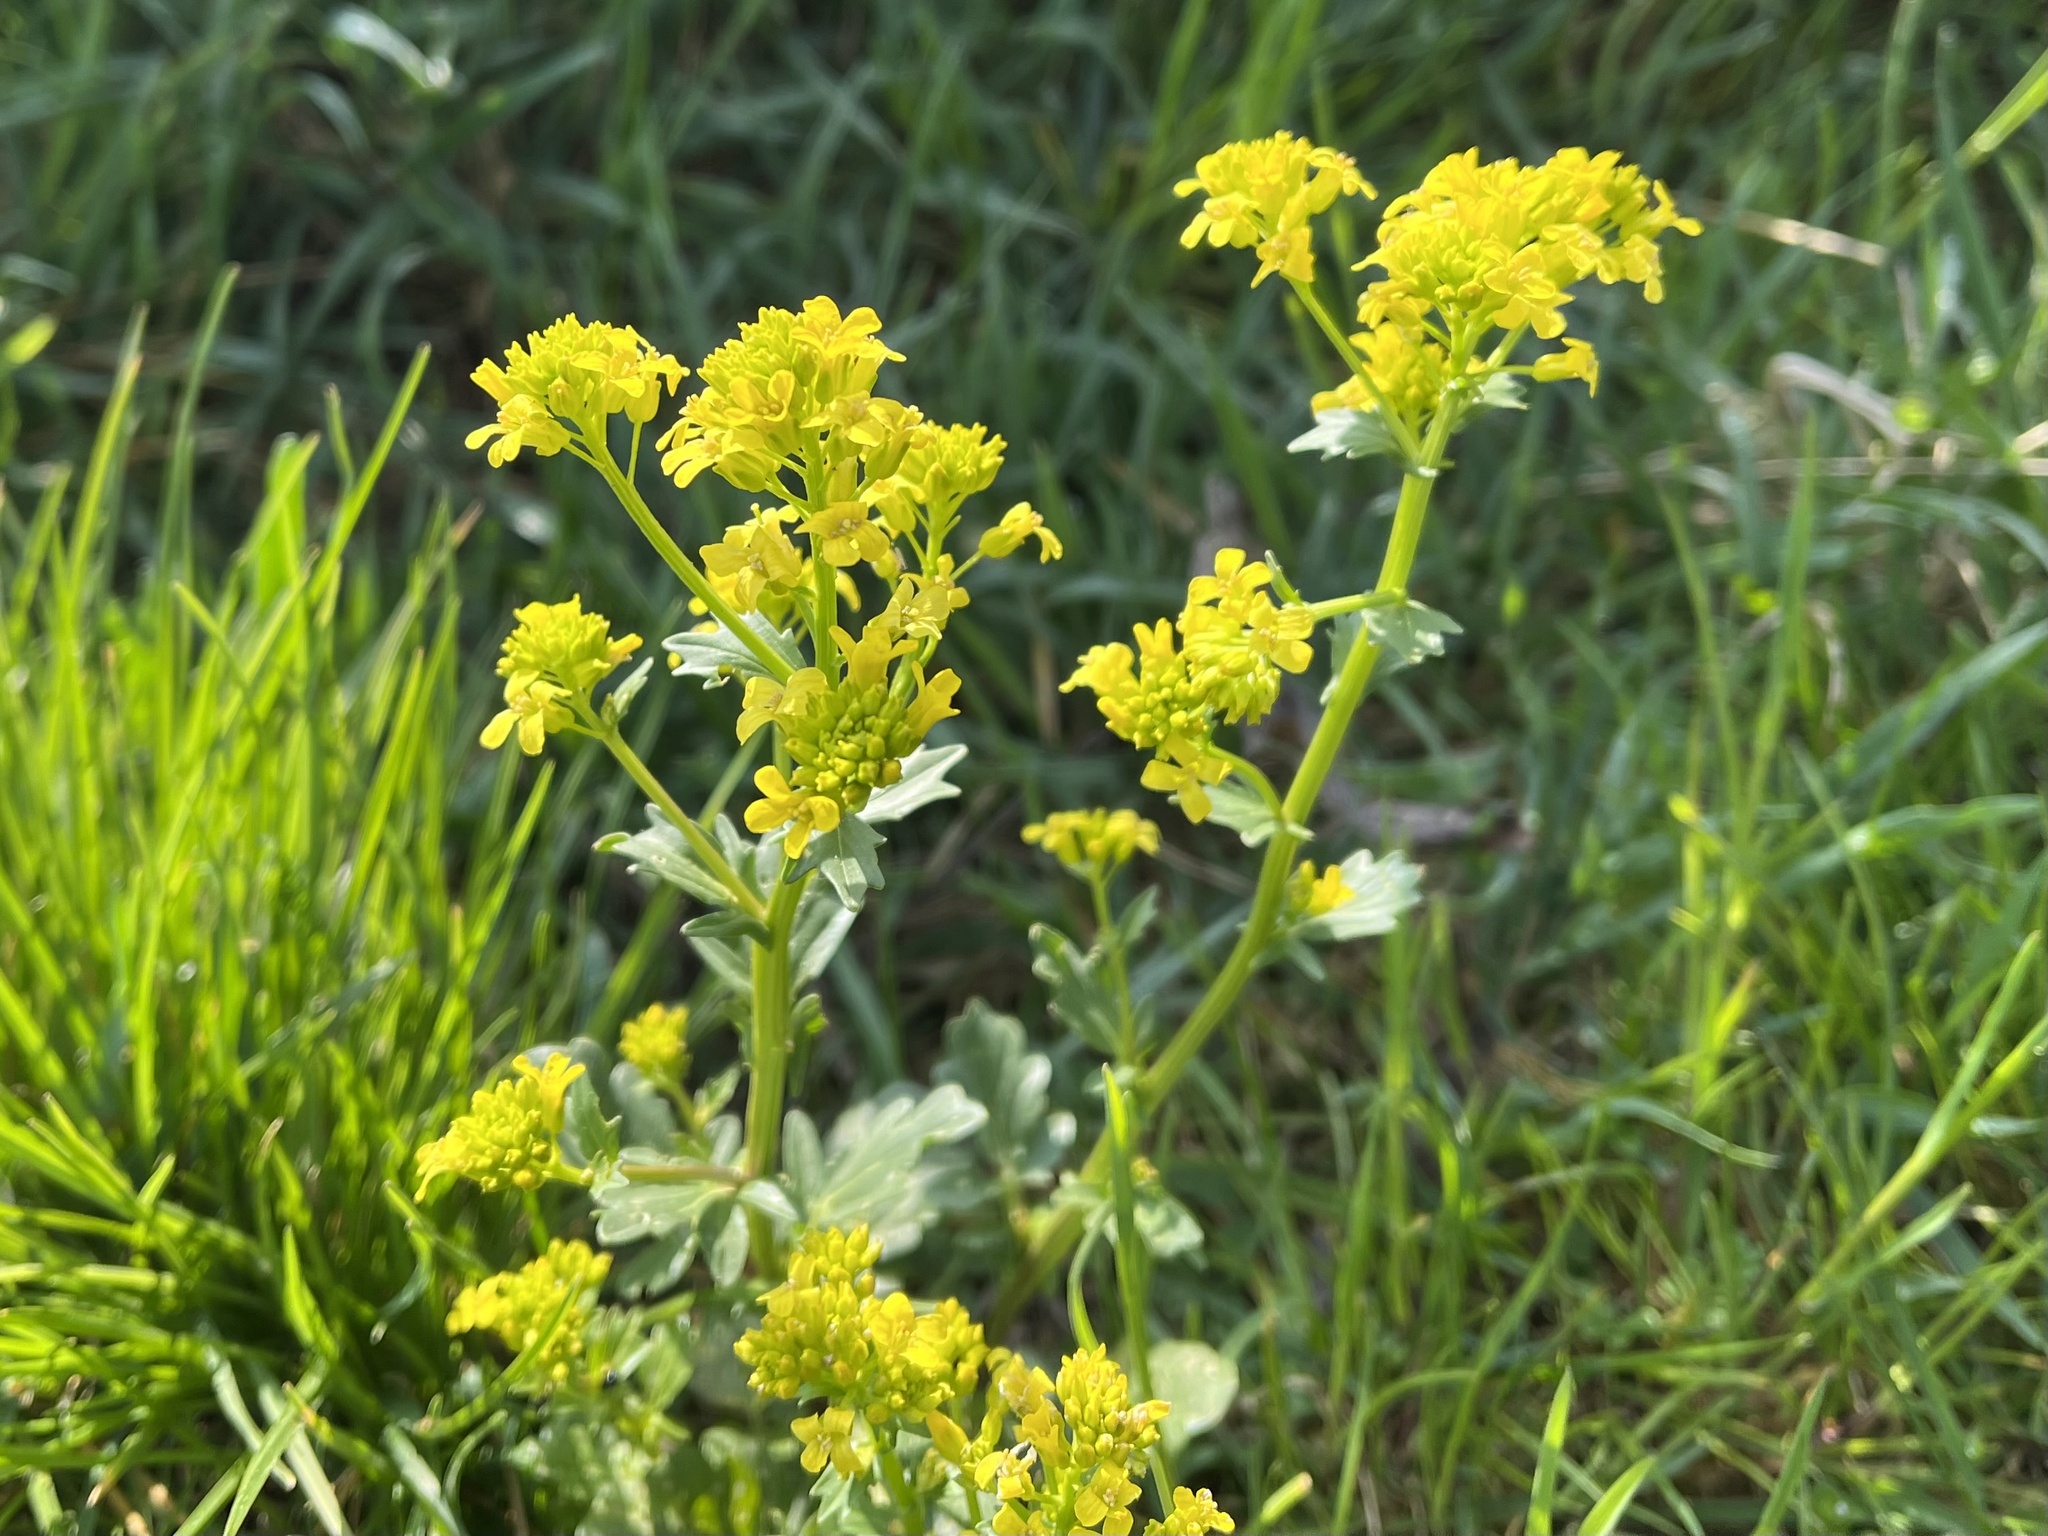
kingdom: Plantae
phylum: Tracheophyta
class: Magnoliopsida
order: Brassicales
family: Brassicaceae
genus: Barbarea
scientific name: Barbarea vulgaris
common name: Cressy-greens
